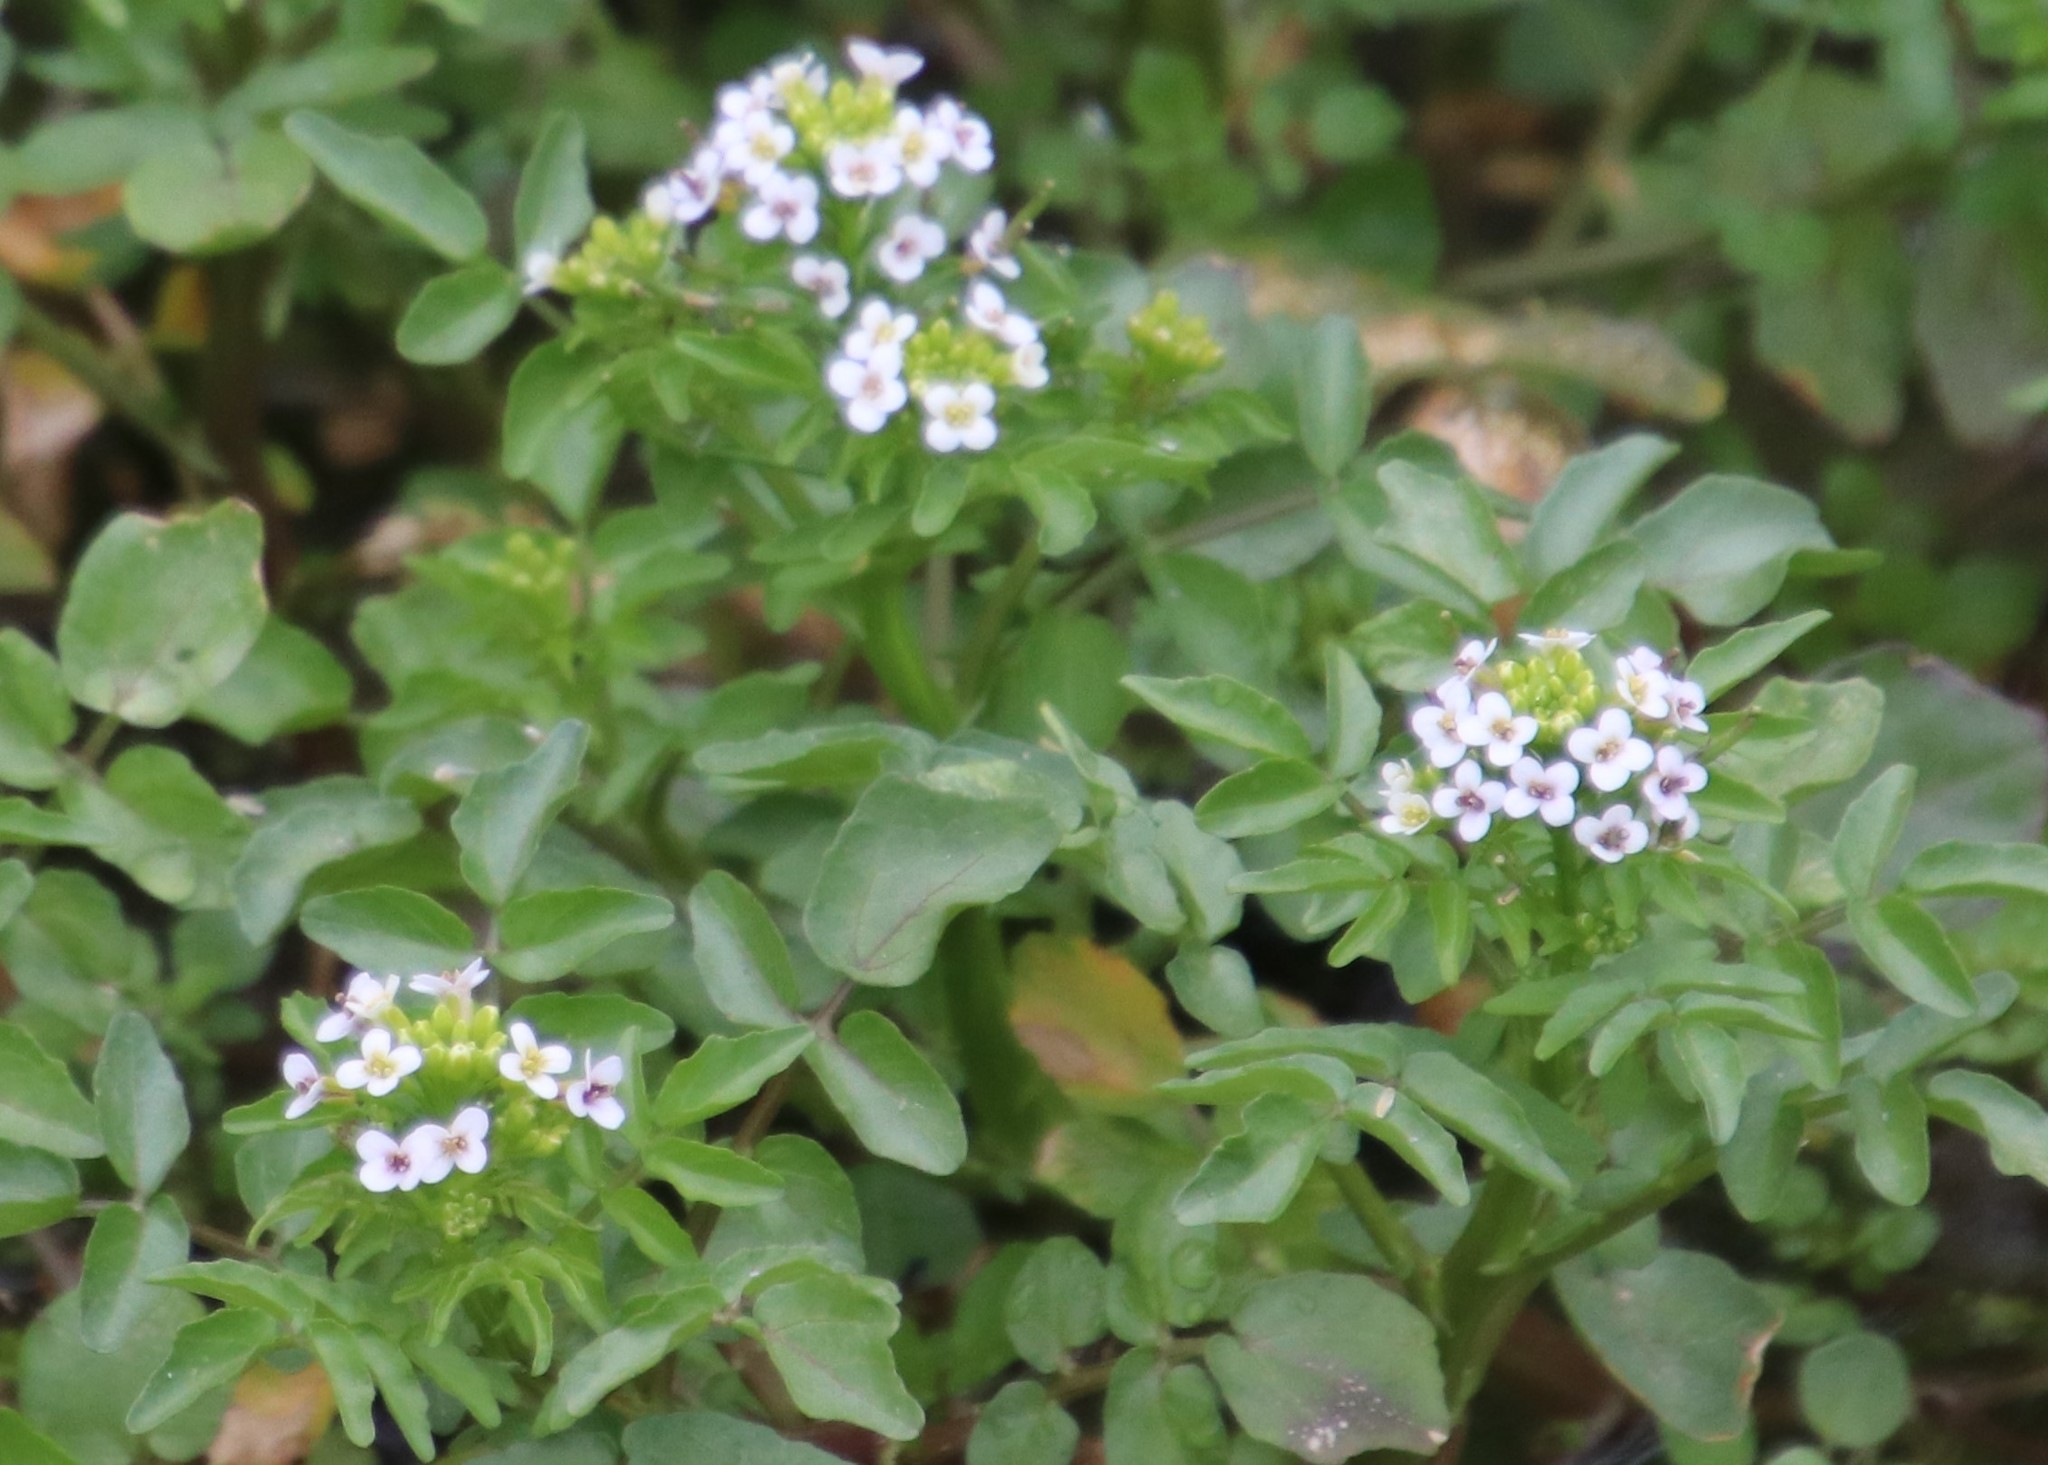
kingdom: Plantae
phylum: Tracheophyta
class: Magnoliopsida
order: Brassicales
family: Brassicaceae
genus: Nasturtium
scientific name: Nasturtium officinale
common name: Watercress
